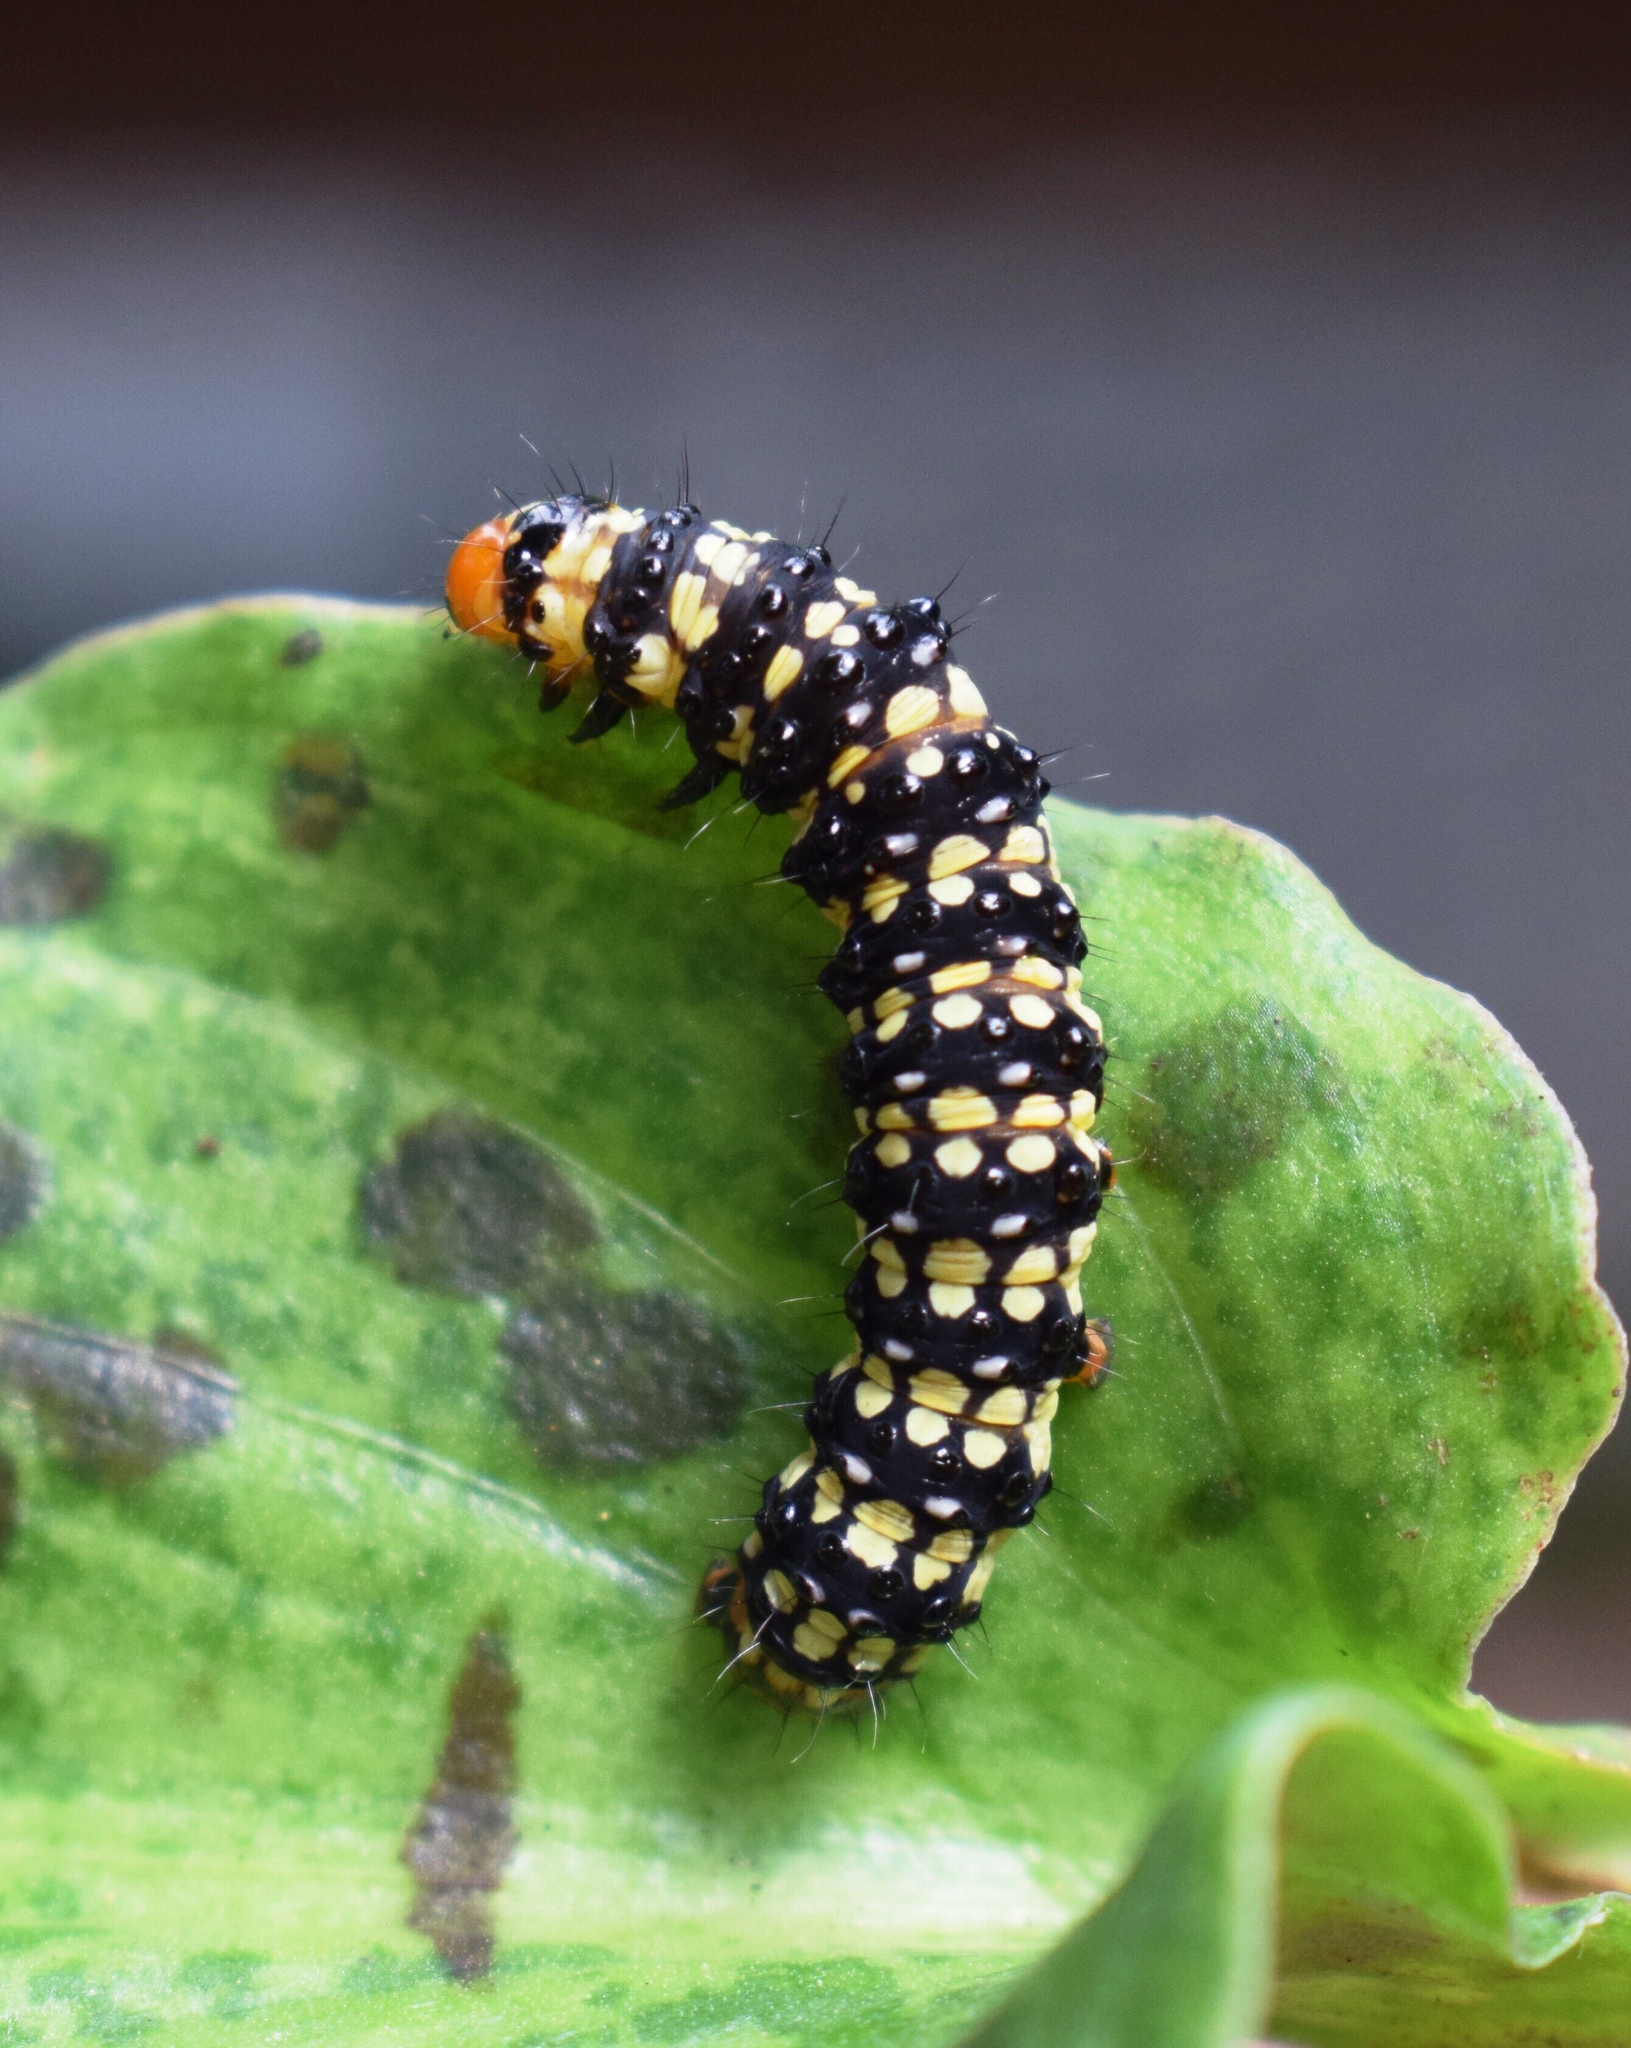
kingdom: Animalia
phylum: Arthropoda
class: Insecta
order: Lepidoptera
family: Noctuidae
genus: Brithys
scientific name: Brithys crini
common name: Kew arches
